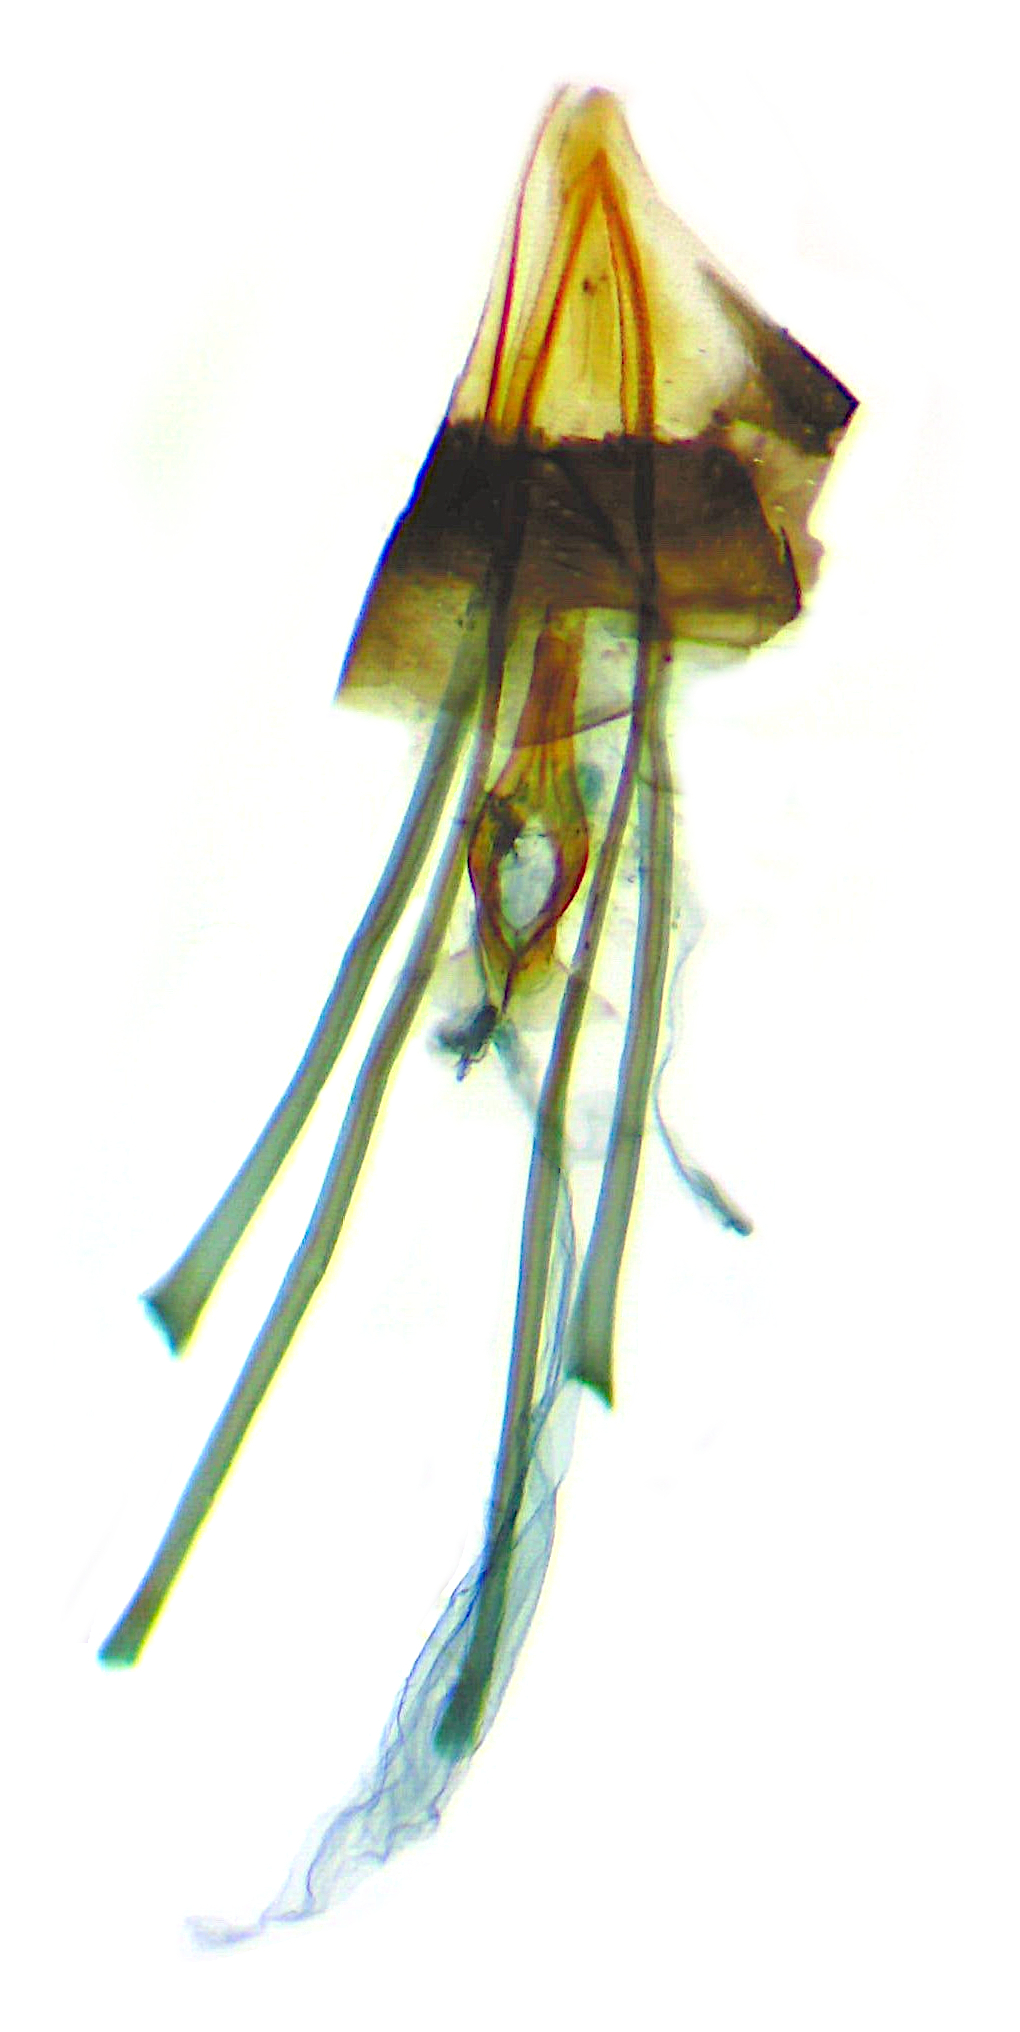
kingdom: Animalia
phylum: Arthropoda
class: Insecta
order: Lepidoptera
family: Eriocraniidae
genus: Dyseriocrania
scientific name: Dyseriocrania griseocapitella
